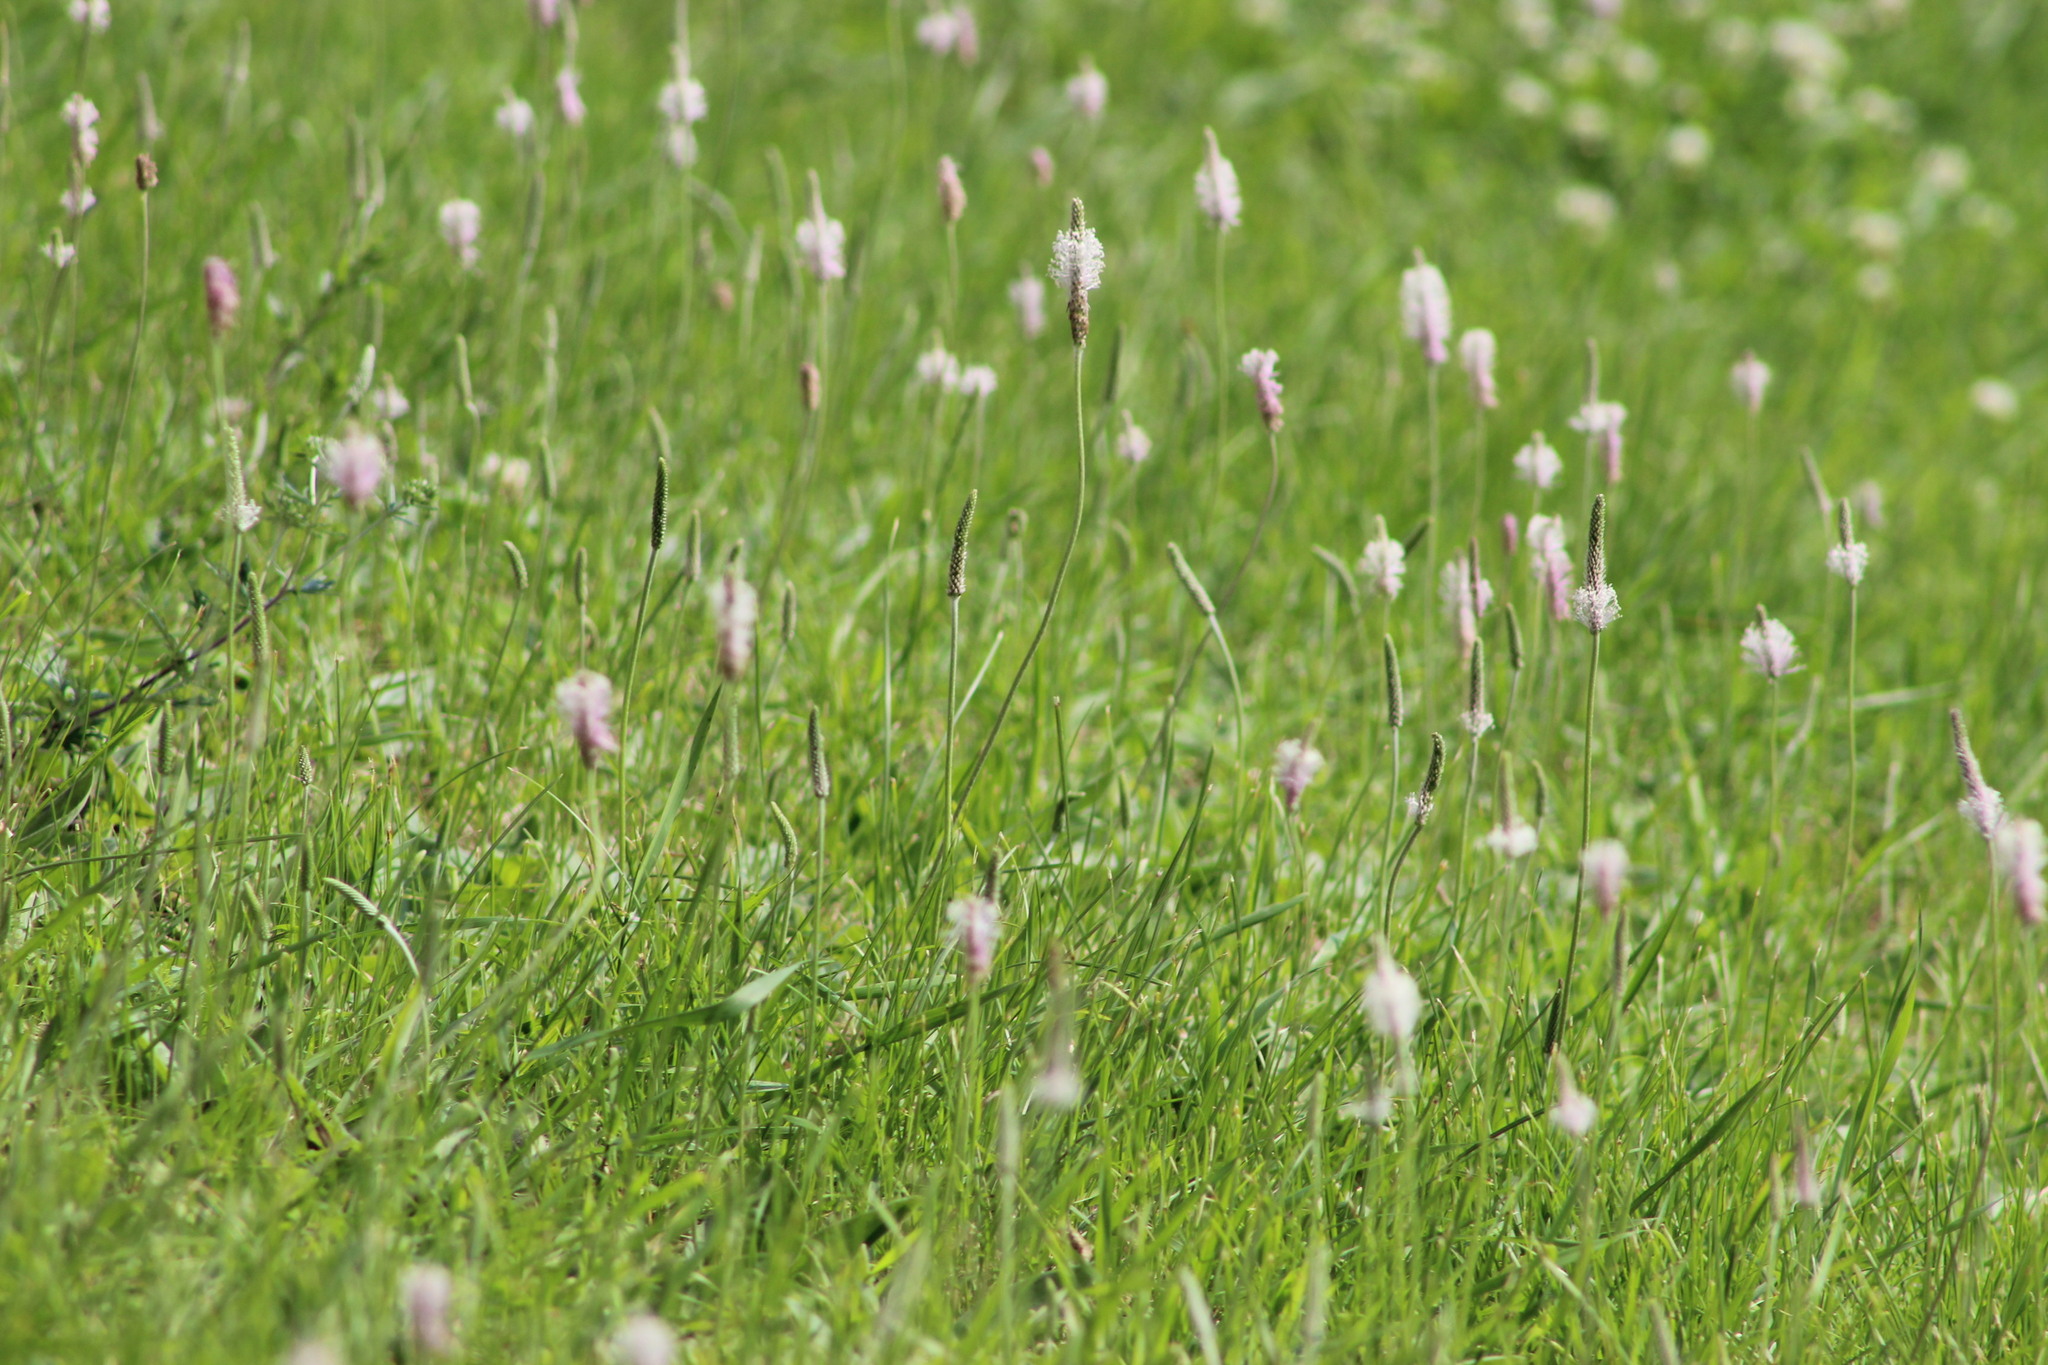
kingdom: Plantae
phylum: Tracheophyta
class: Magnoliopsida
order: Lamiales
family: Plantaginaceae
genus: Plantago
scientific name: Plantago media
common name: Hoary plantain
